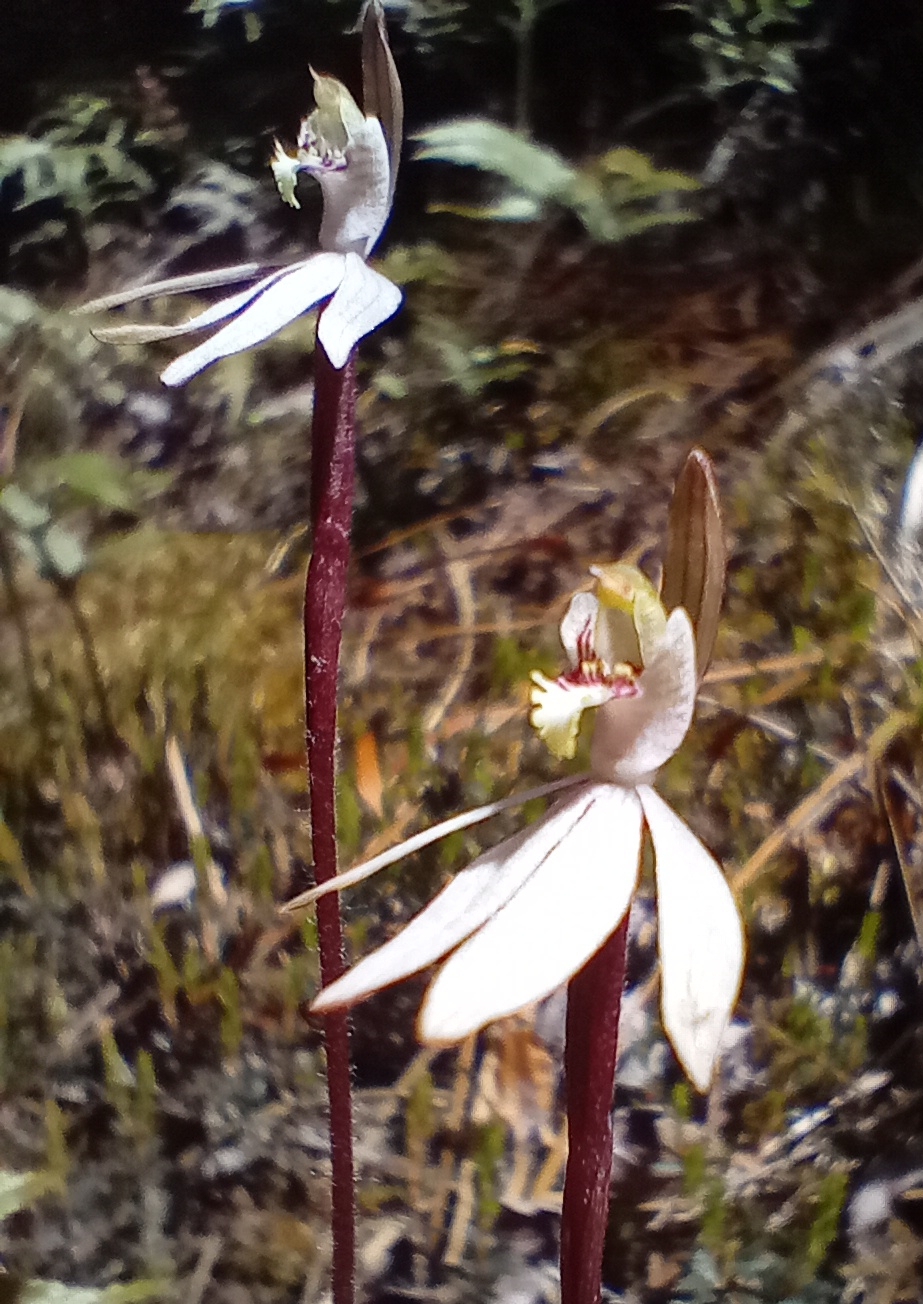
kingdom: Plantae
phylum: Tracheophyta
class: Liliopsida
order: Asparagales
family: Orchidaceae
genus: Caladenia
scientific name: Caladenia chlorostyla
